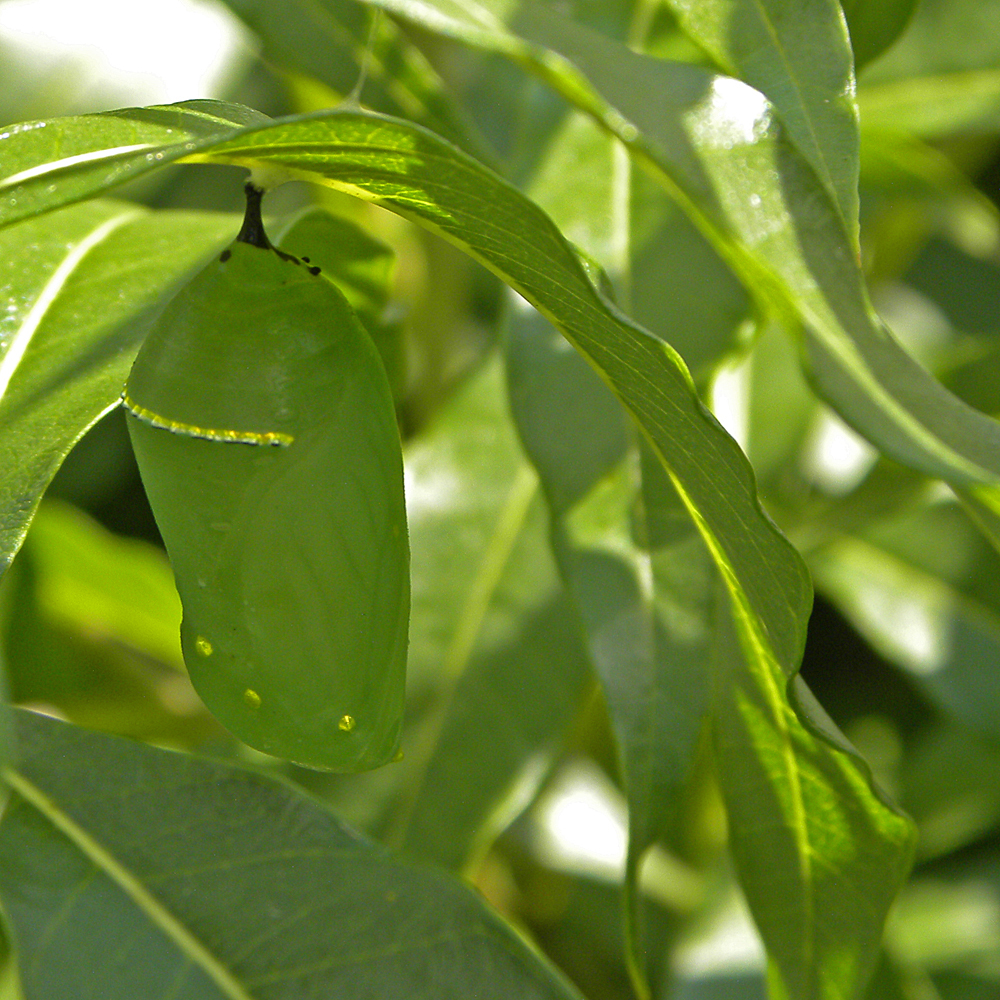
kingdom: Animalia
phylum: Arthropoda
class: Insecta
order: Lepidoptera
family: Nymphalidae
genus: Danaus
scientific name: Danaus plexippus
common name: Monarch
